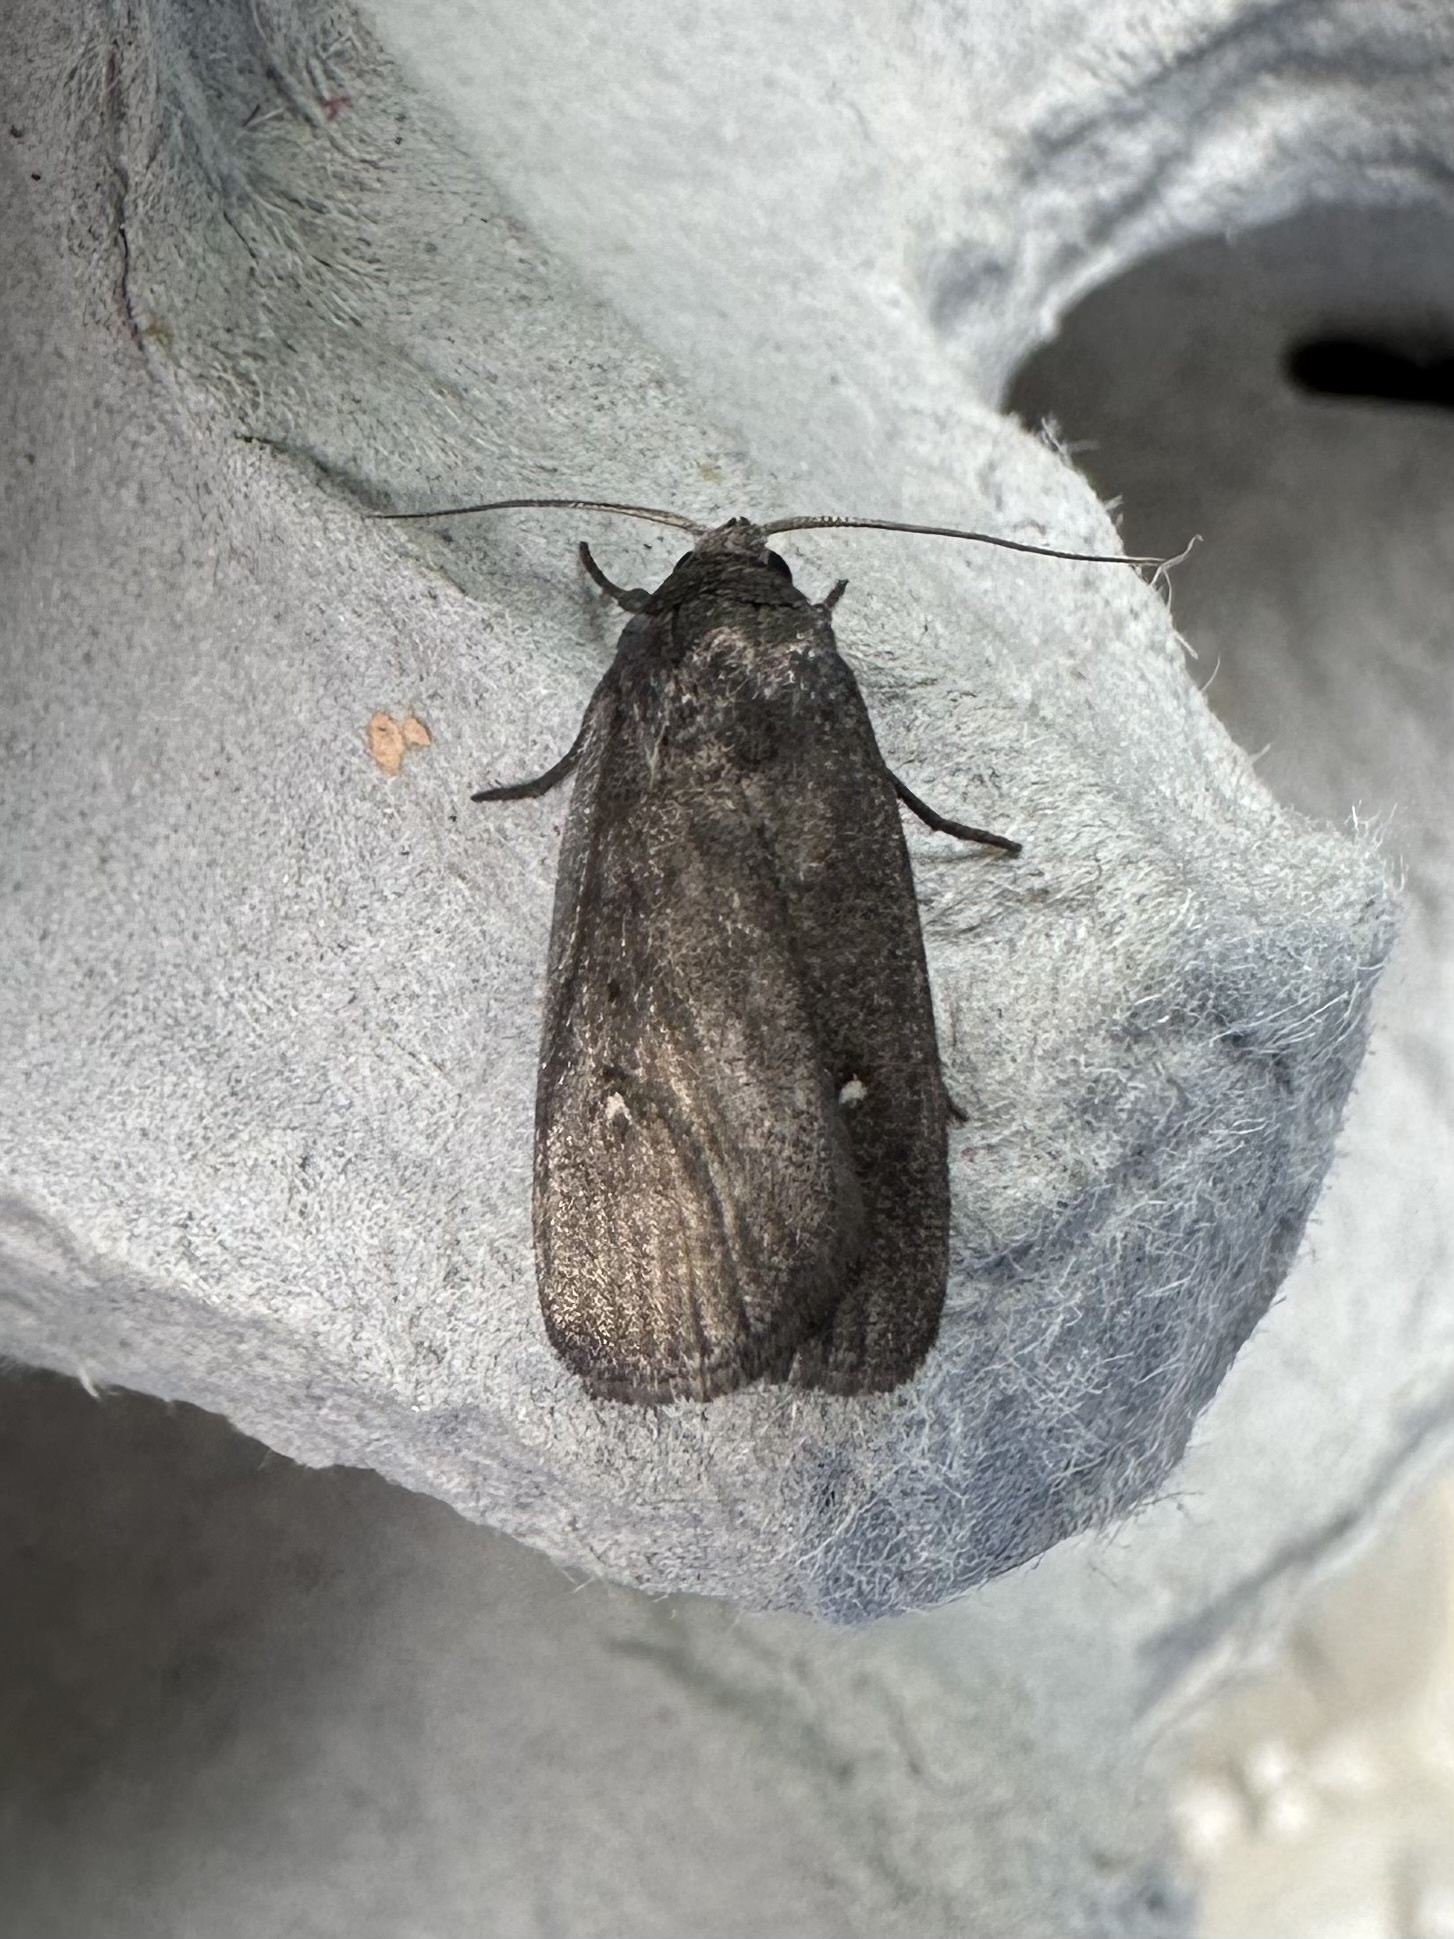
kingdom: Animalia
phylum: Arthropoda
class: Insecta
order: Lepidoptera
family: Noctuidae
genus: Proxenus
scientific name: Proxenus miranda
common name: Miranda moth
